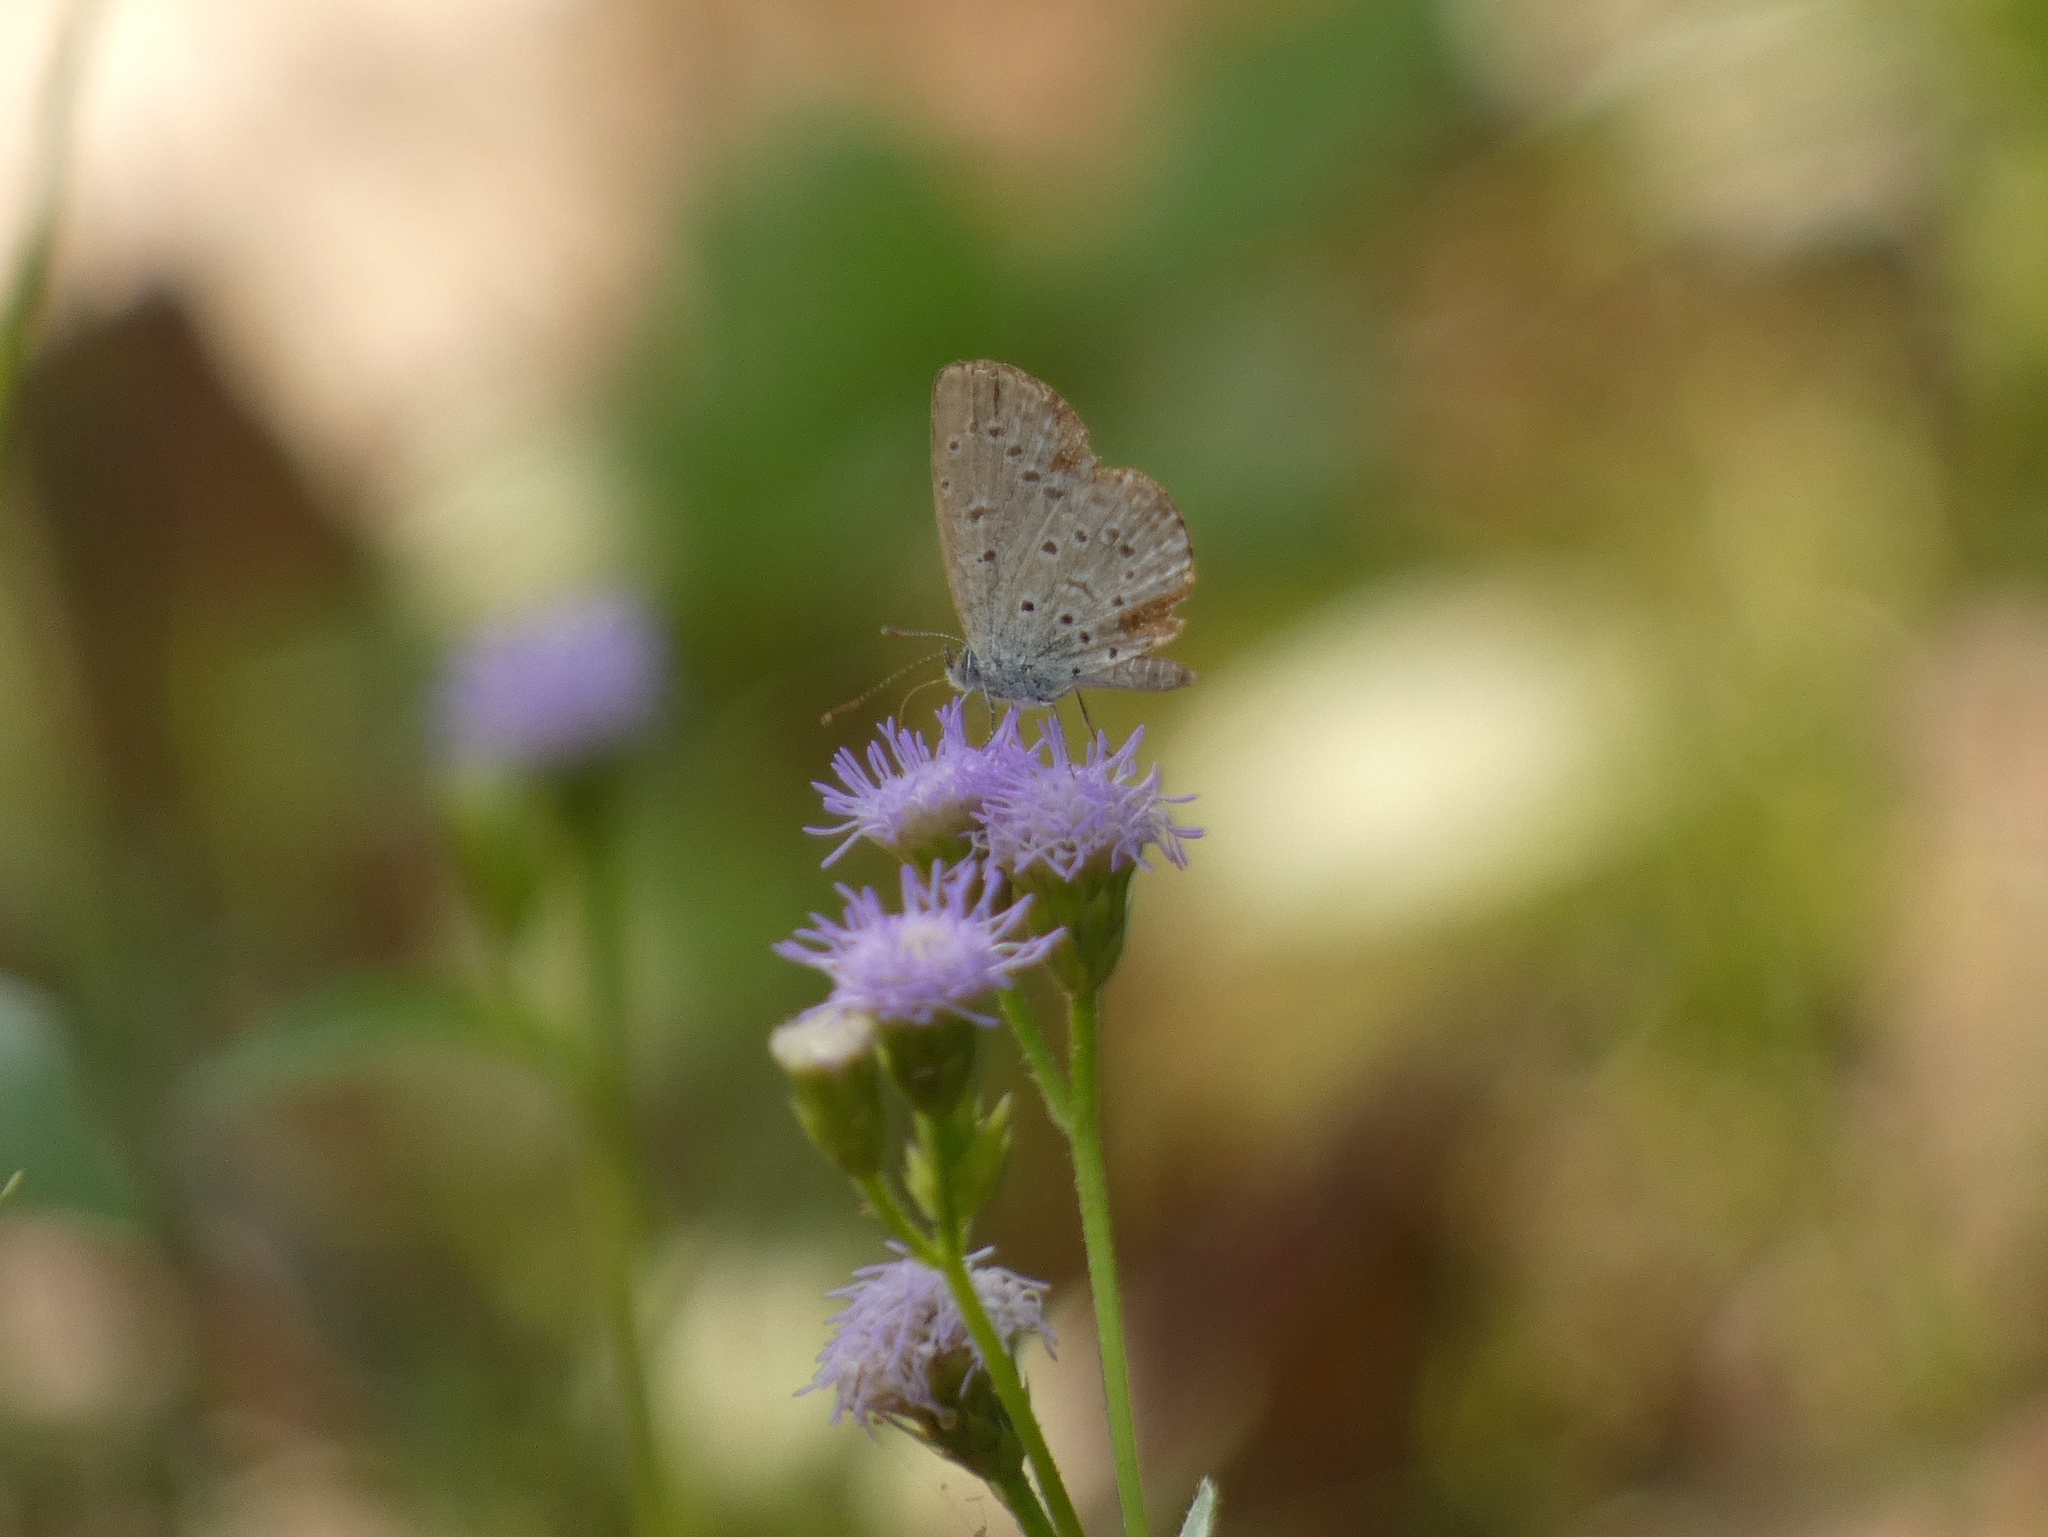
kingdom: Animalia
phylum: Arthropoda
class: Insecta
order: Lepidoptera
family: Lycaenidae
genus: Zizeeria
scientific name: Zizeeria knysna
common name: African grass blue
